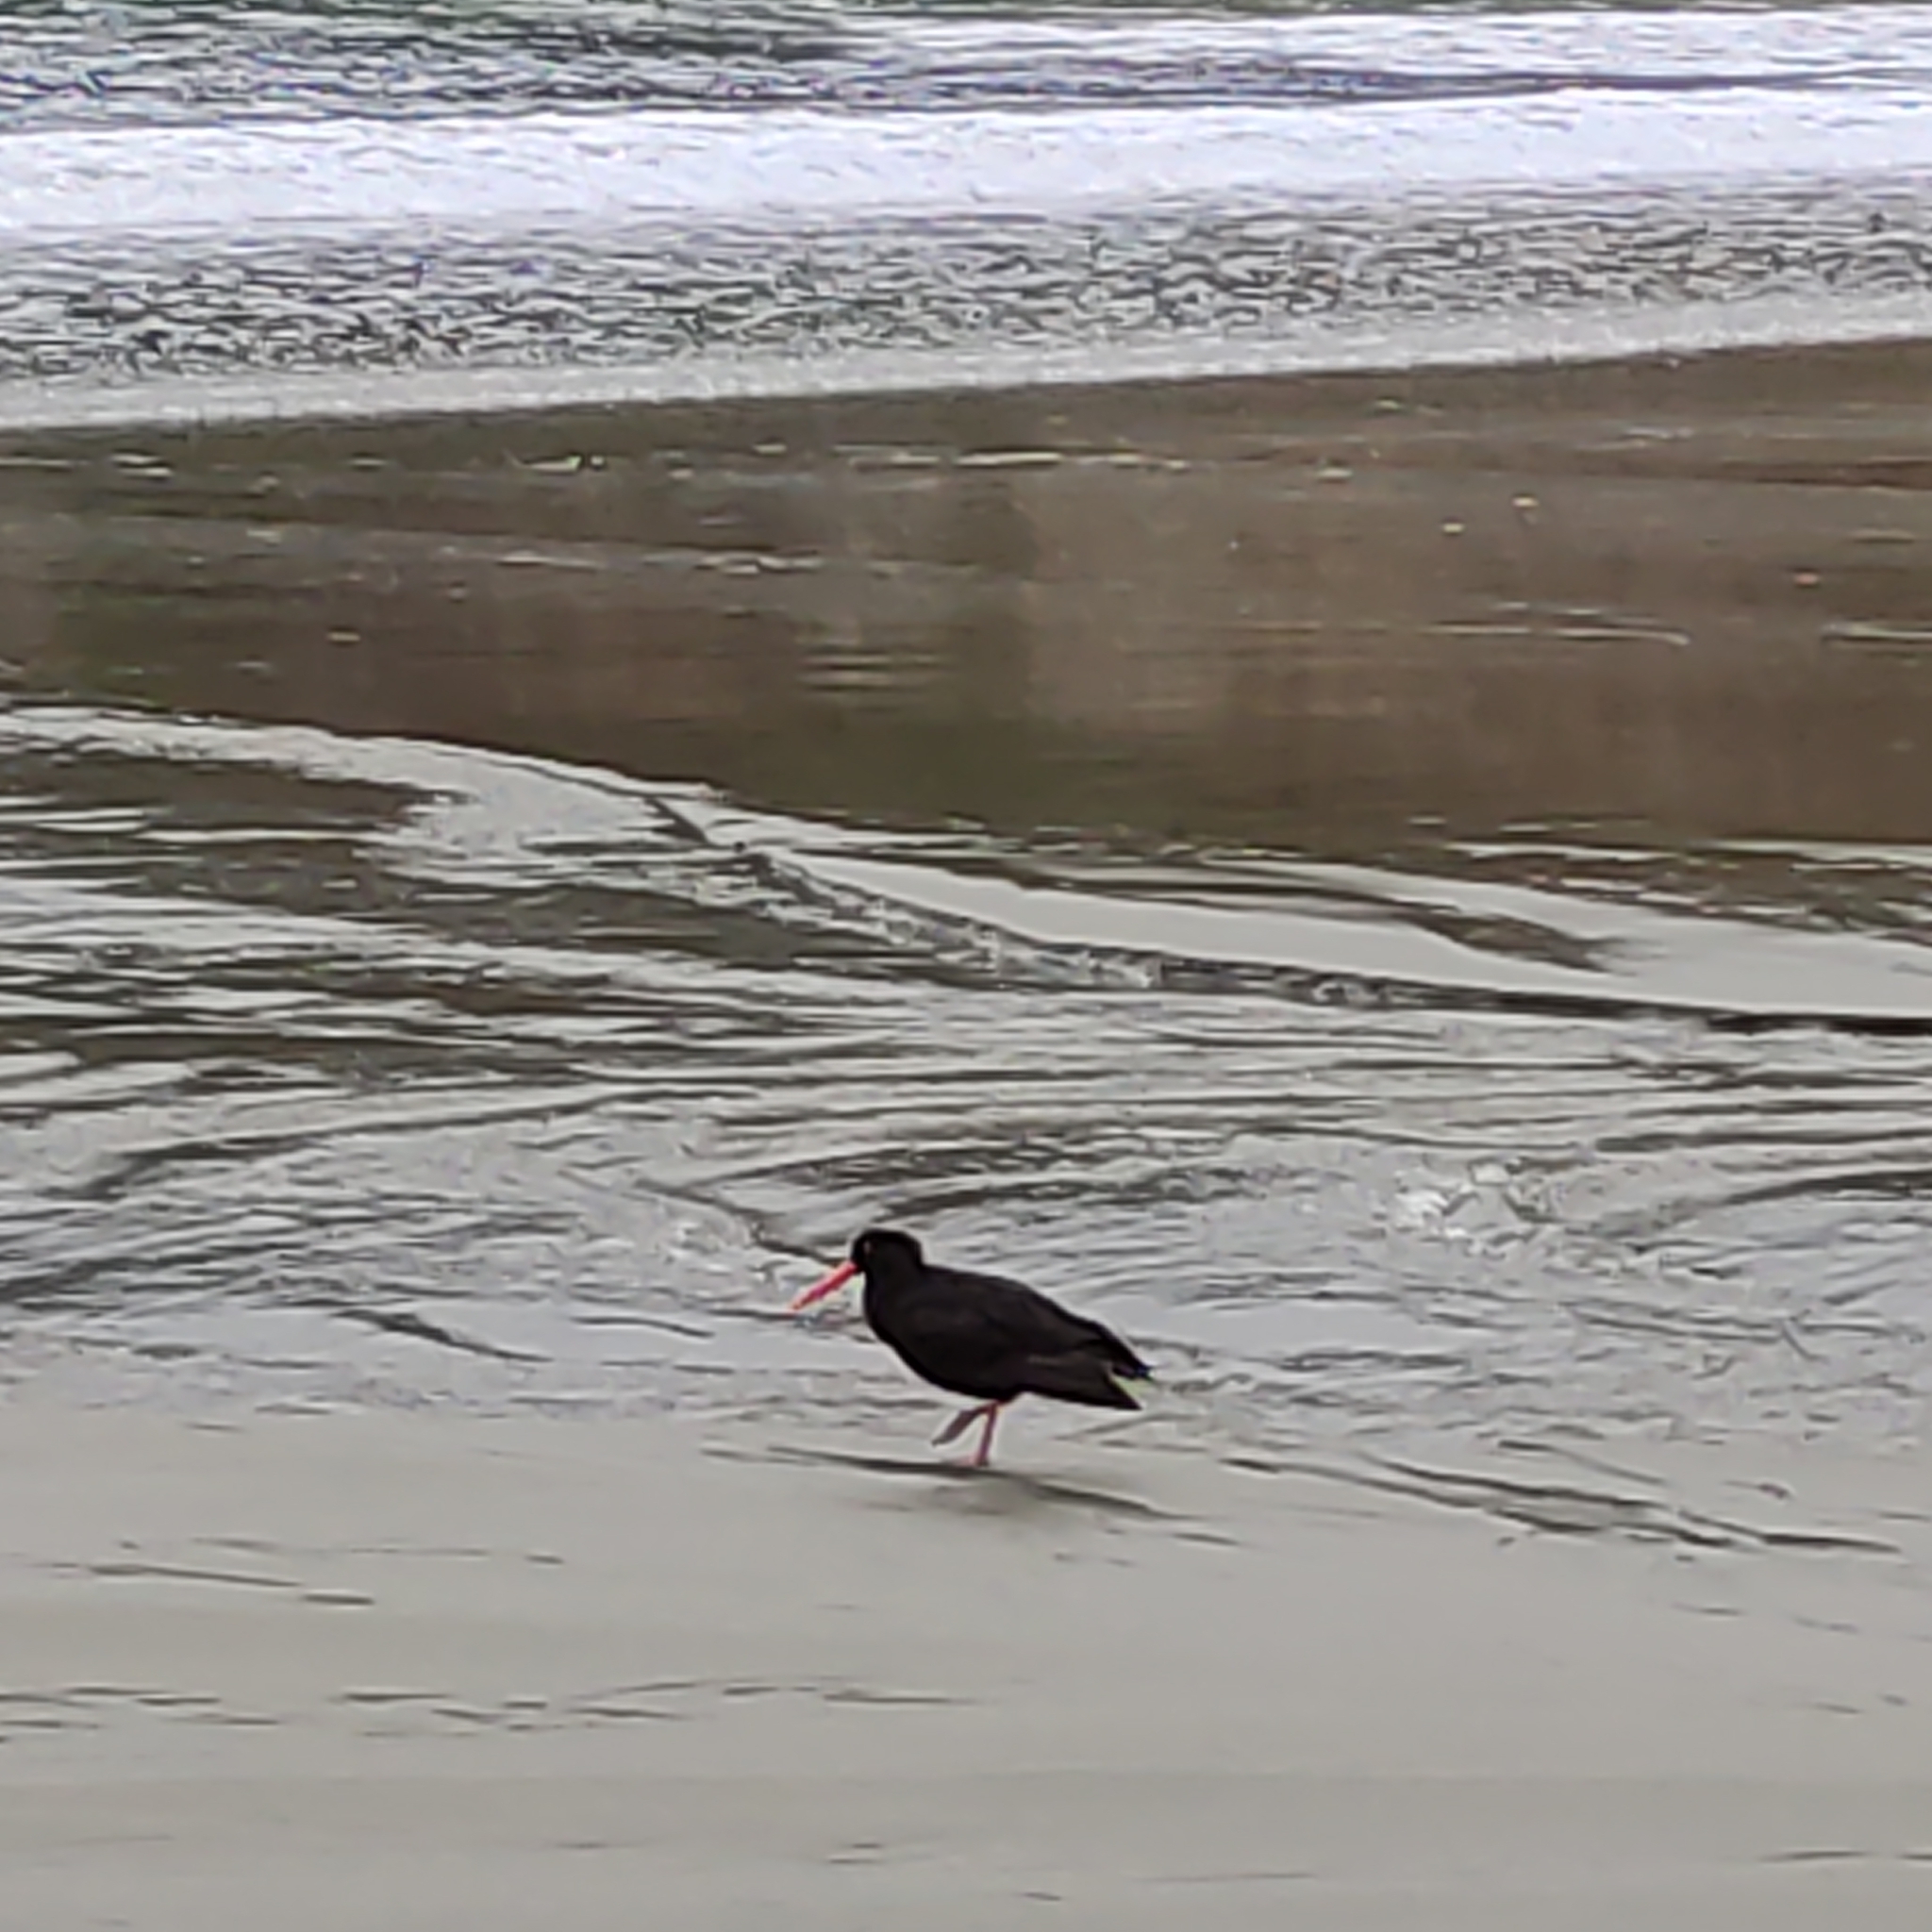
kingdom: Animalia
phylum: Chordata
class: Aves
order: Charadriiformes
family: Haematopodidae
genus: Haematopus
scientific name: Haematopus unicolor
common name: Variable oystercatcher
